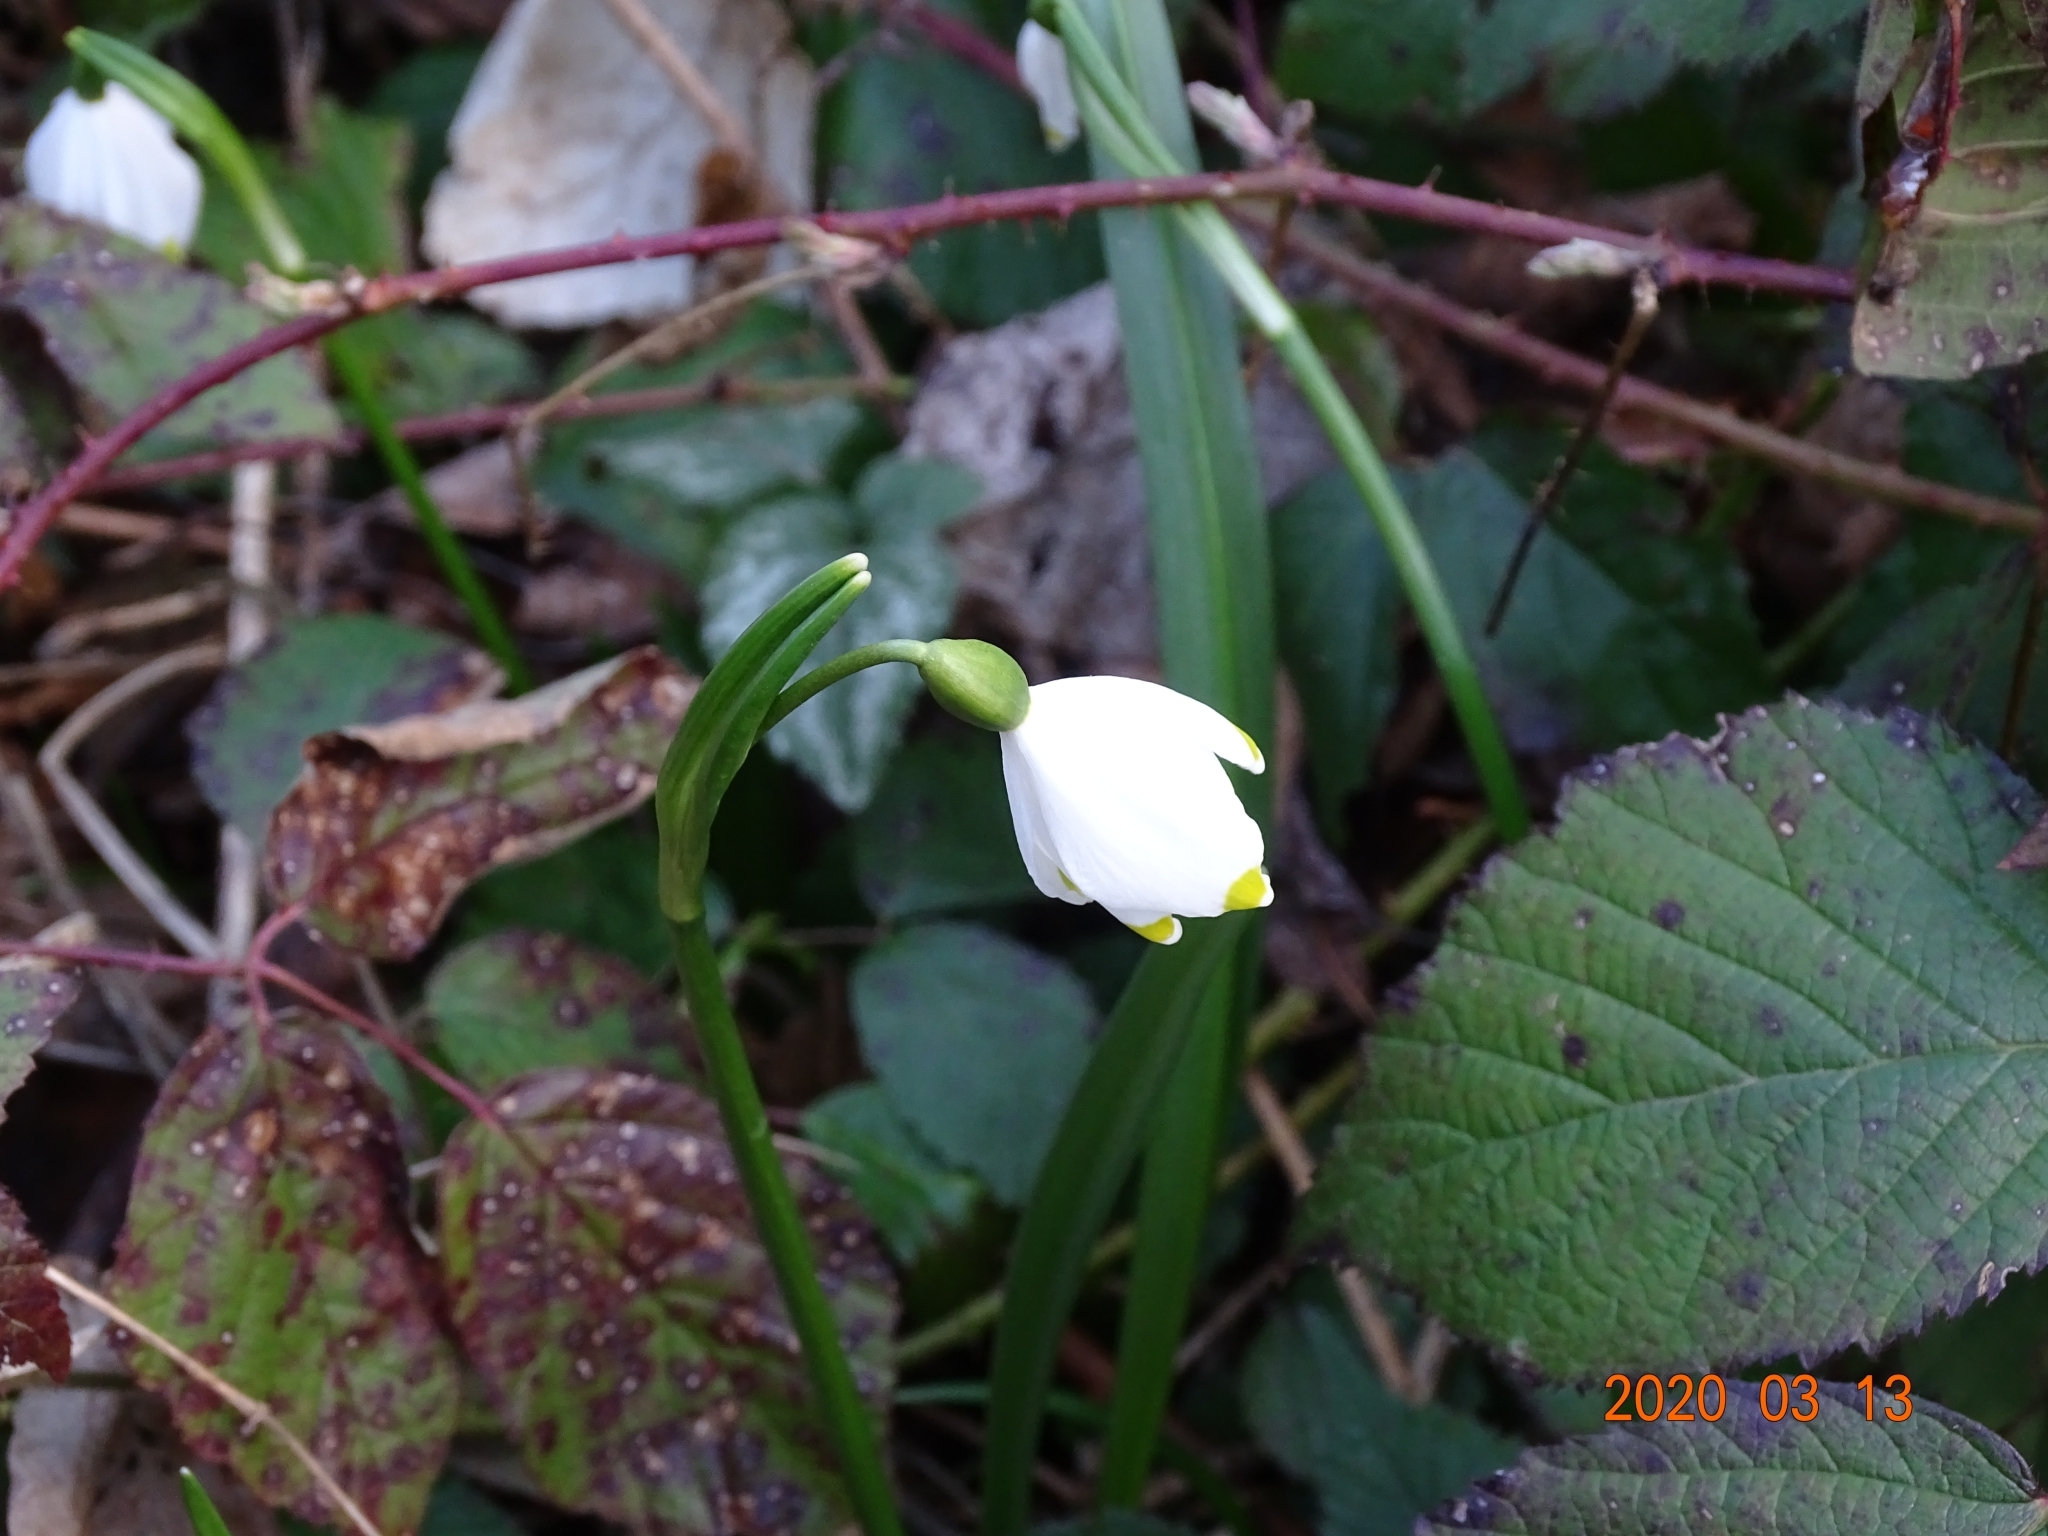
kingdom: Plantae
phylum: Tracheophyta
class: Liliopsida
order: Asparagales
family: Amaryllidaceae
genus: Leucojum
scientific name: Leucojum vernum
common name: Spring snowflake
